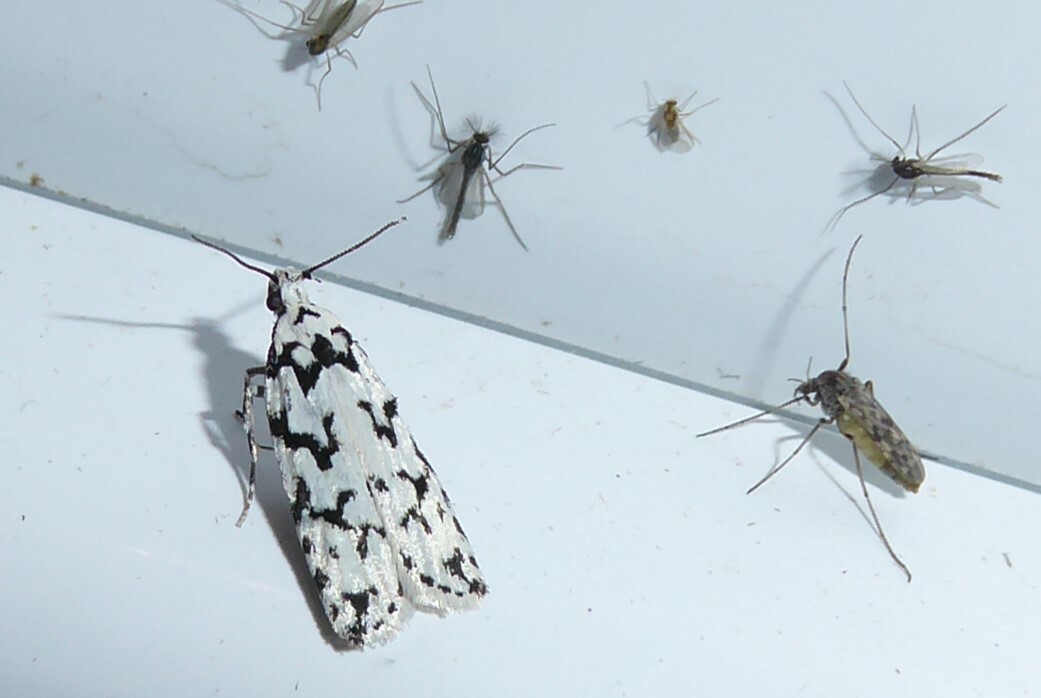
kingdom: Animalia
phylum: Arthropoda
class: Insecta
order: Lepidoptera
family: Oecophoridae
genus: Izatha
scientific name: Izatha katadiktya
